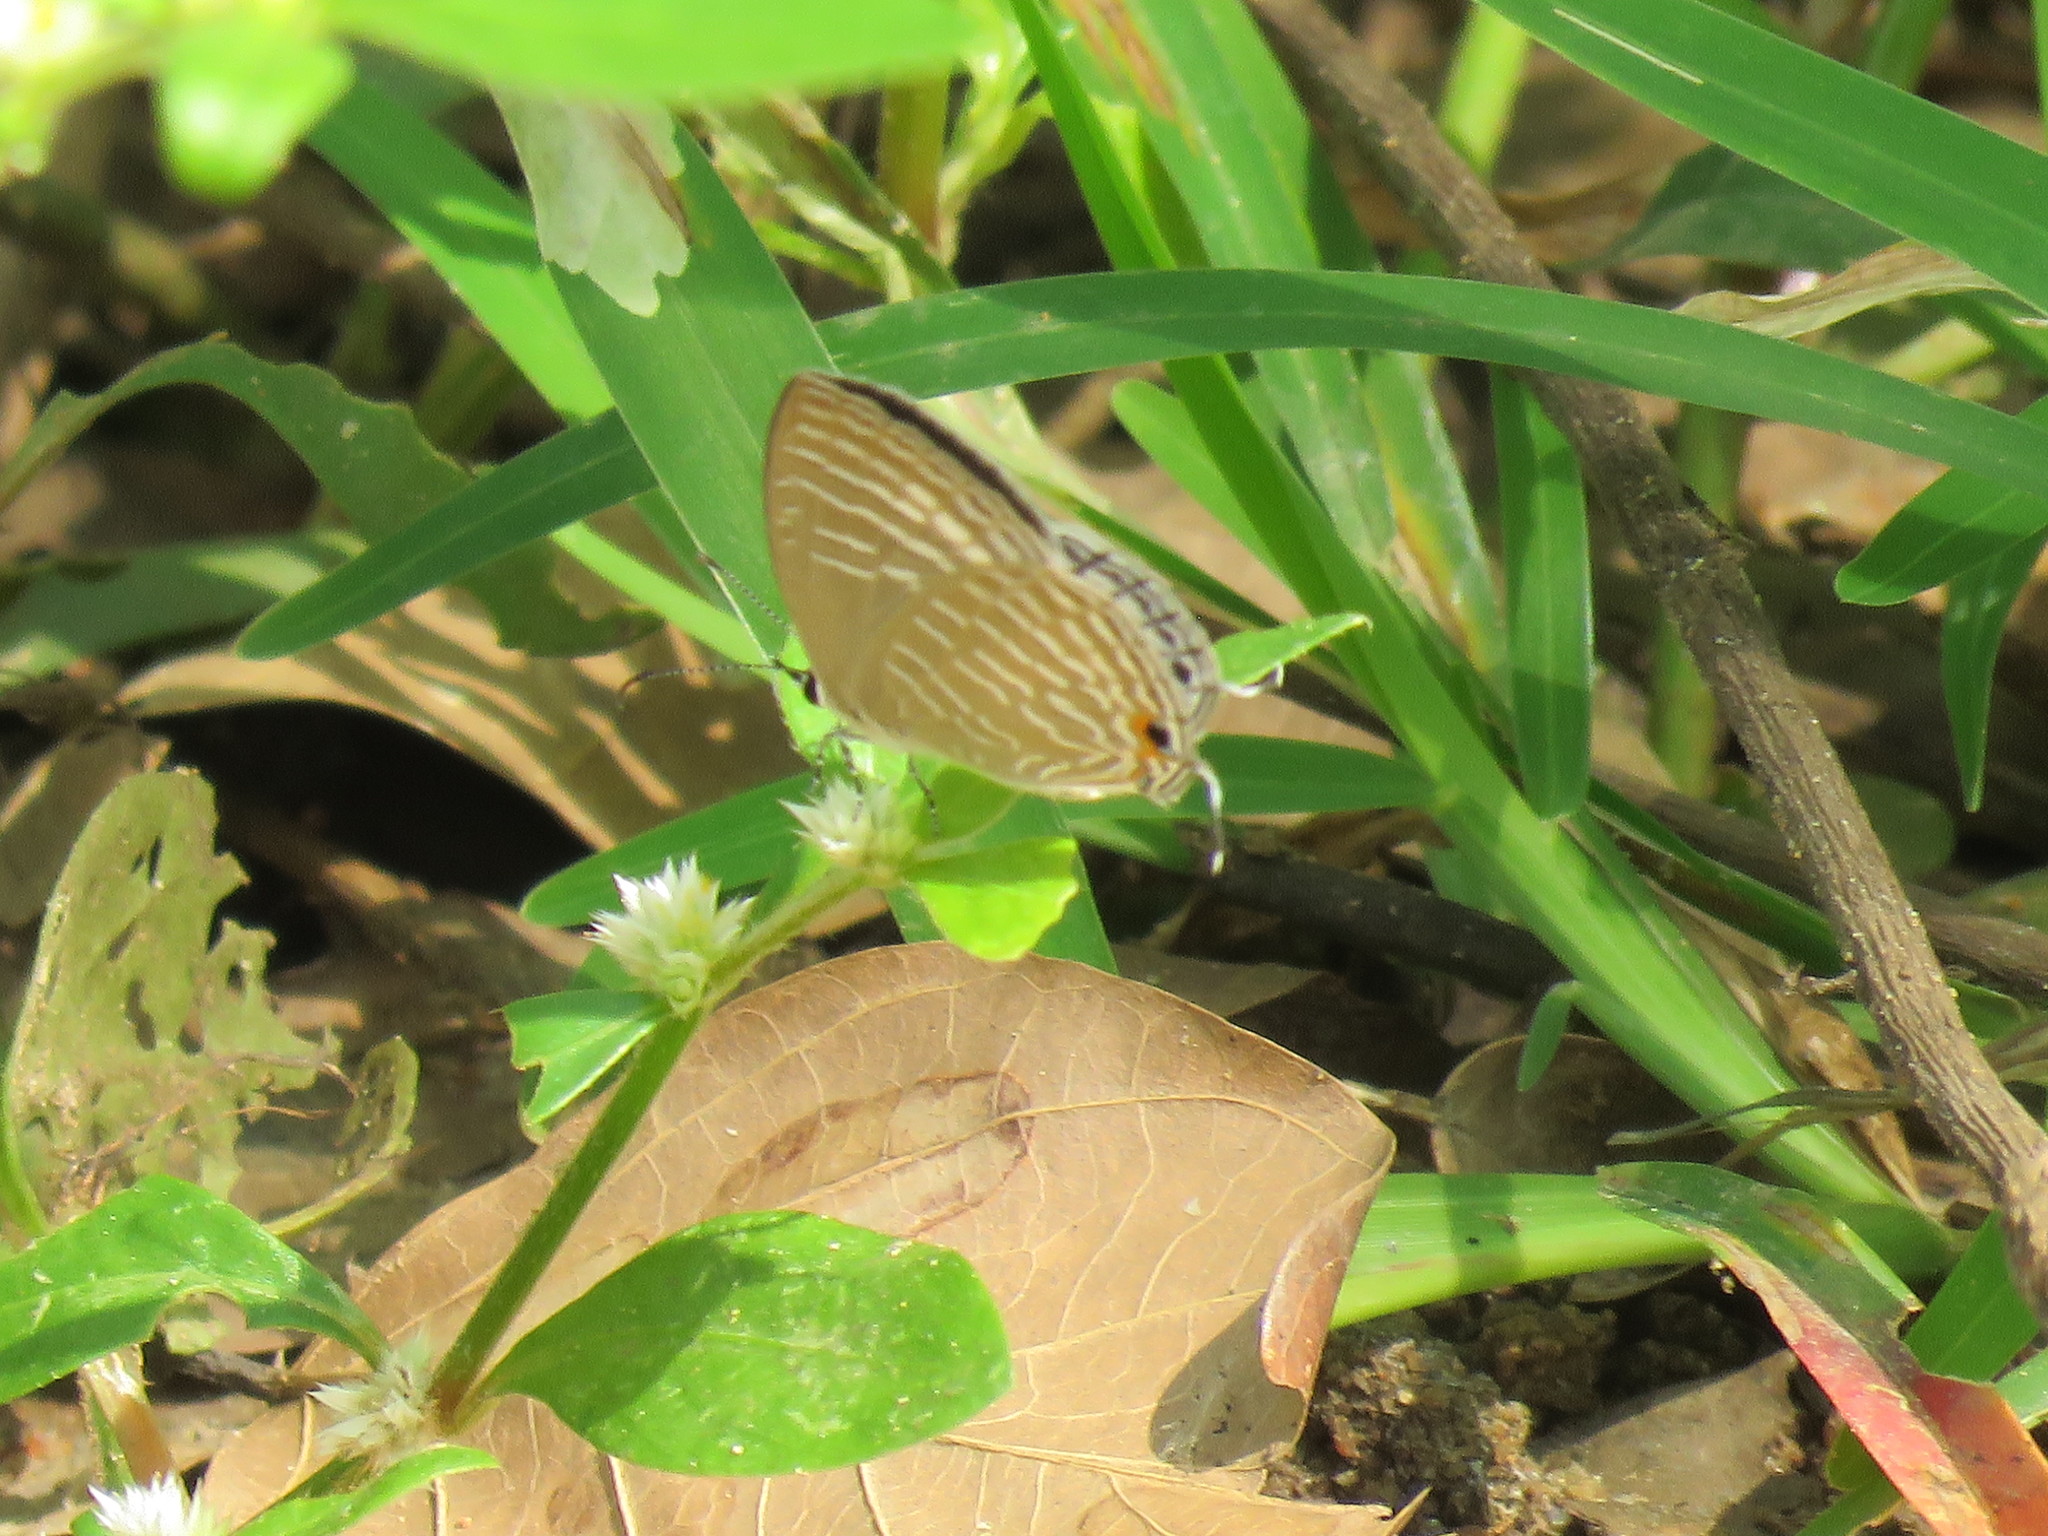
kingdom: Animalia
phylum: Arthropoda
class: Insecta
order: Lepidoptera
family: Lycaenidae
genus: Jamides
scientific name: Jamides celeno
